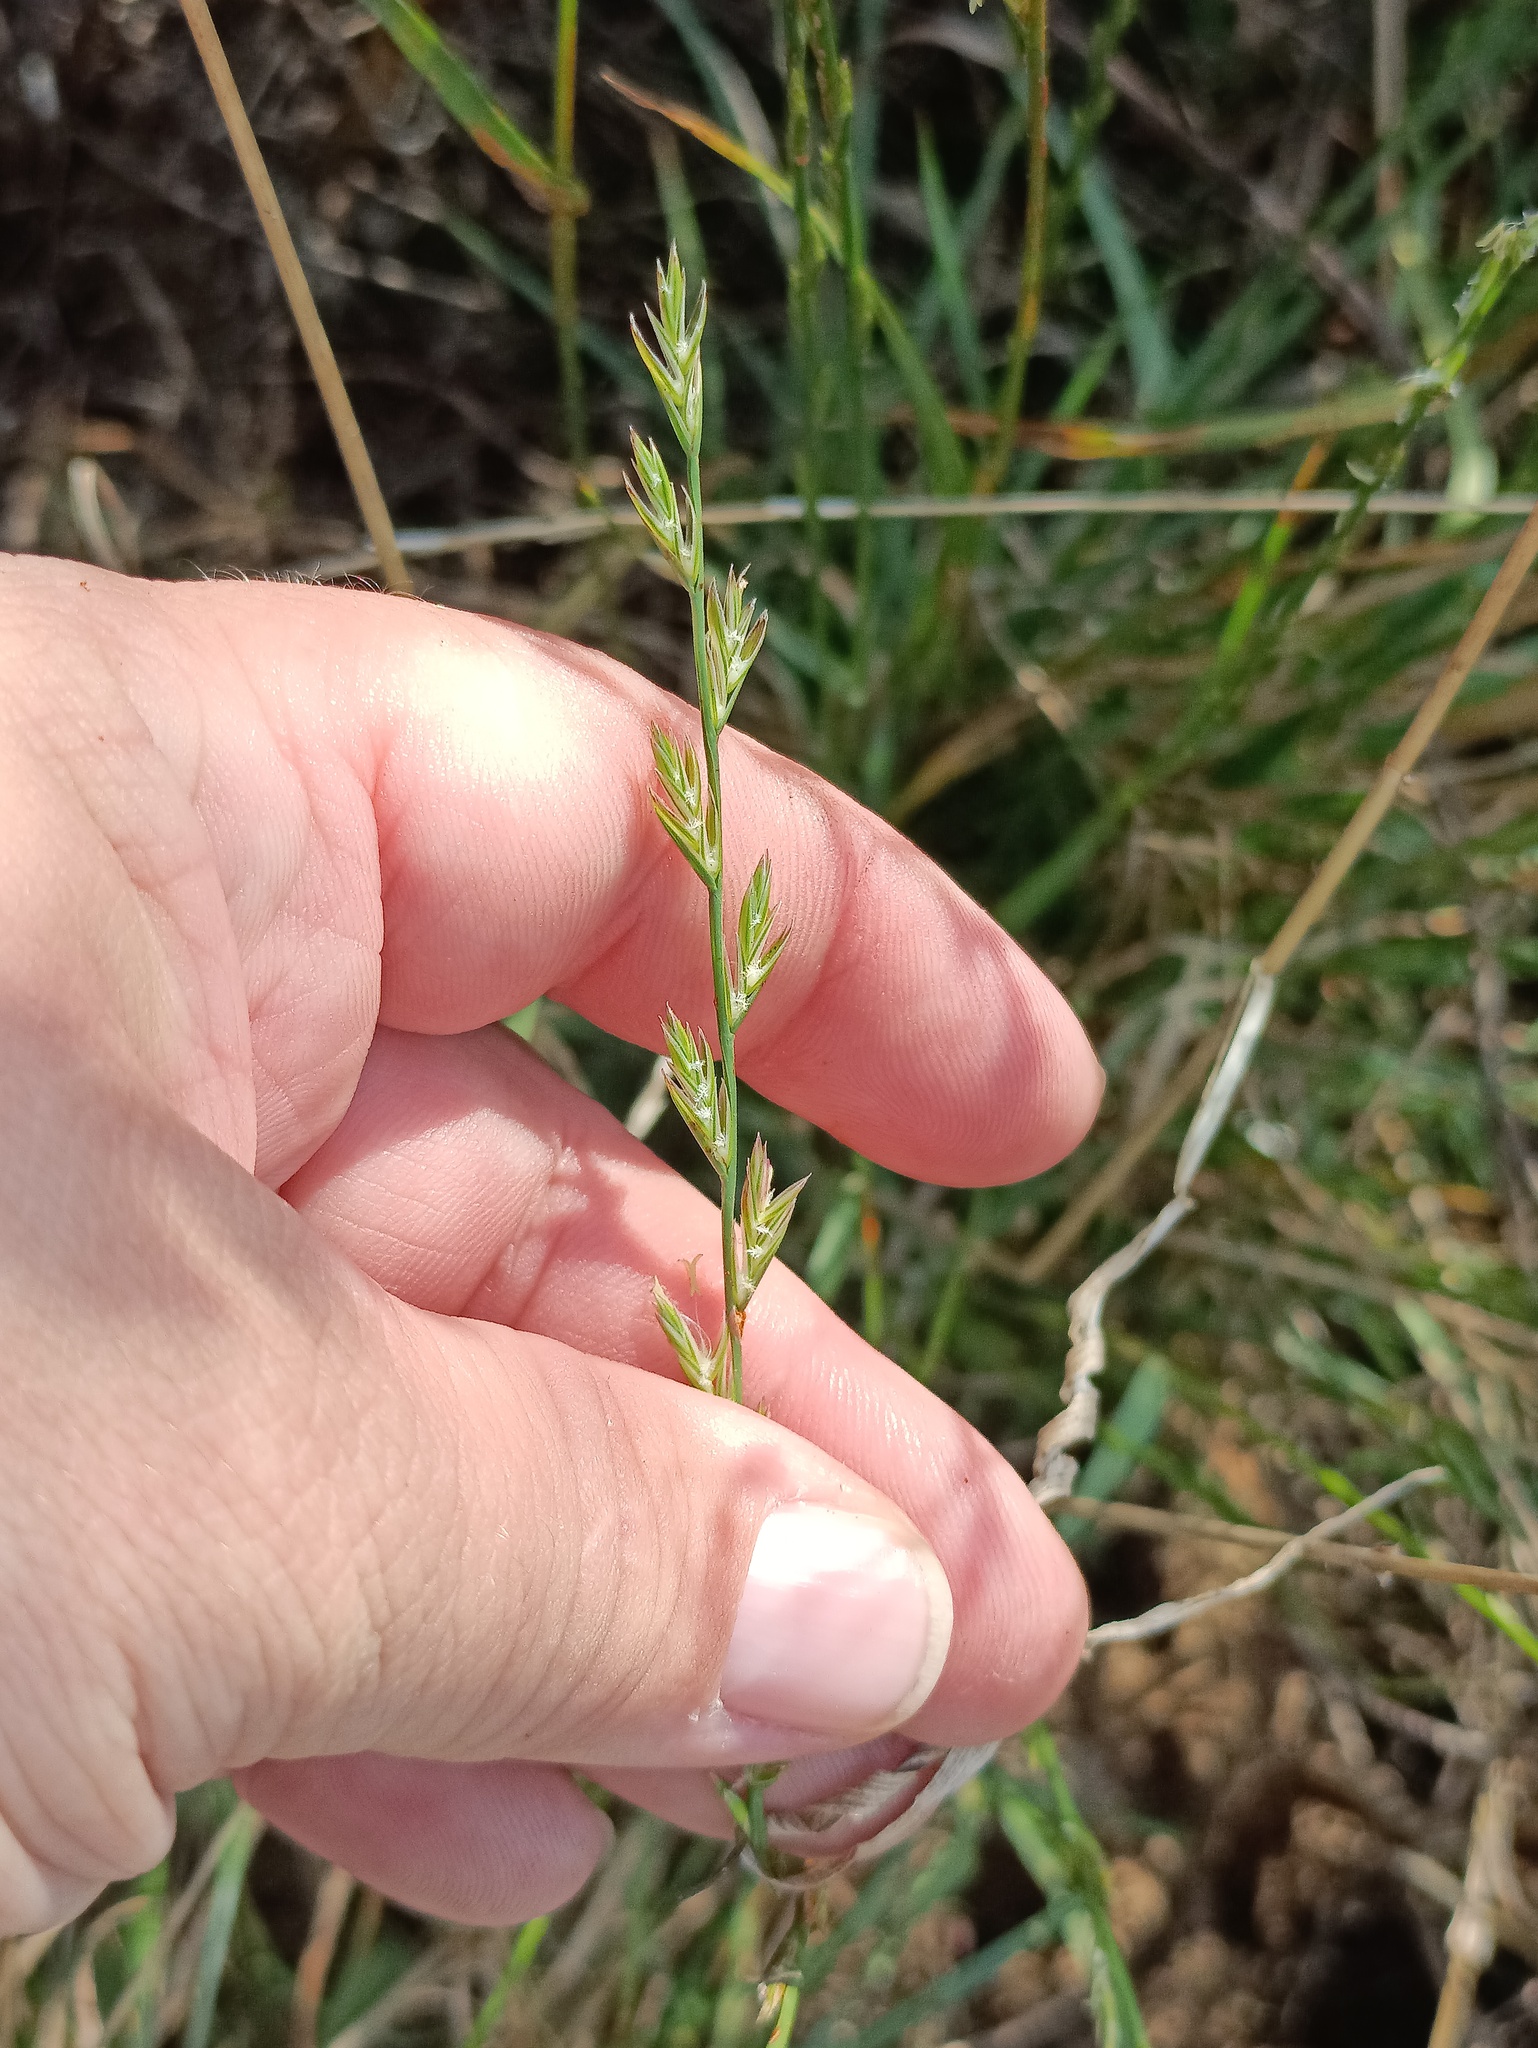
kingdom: Plantae
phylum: Tracheophyta
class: Liliopsida
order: Poales
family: Poaceae
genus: Lolium
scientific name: Lolium perenne
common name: Perennial ryegrass
